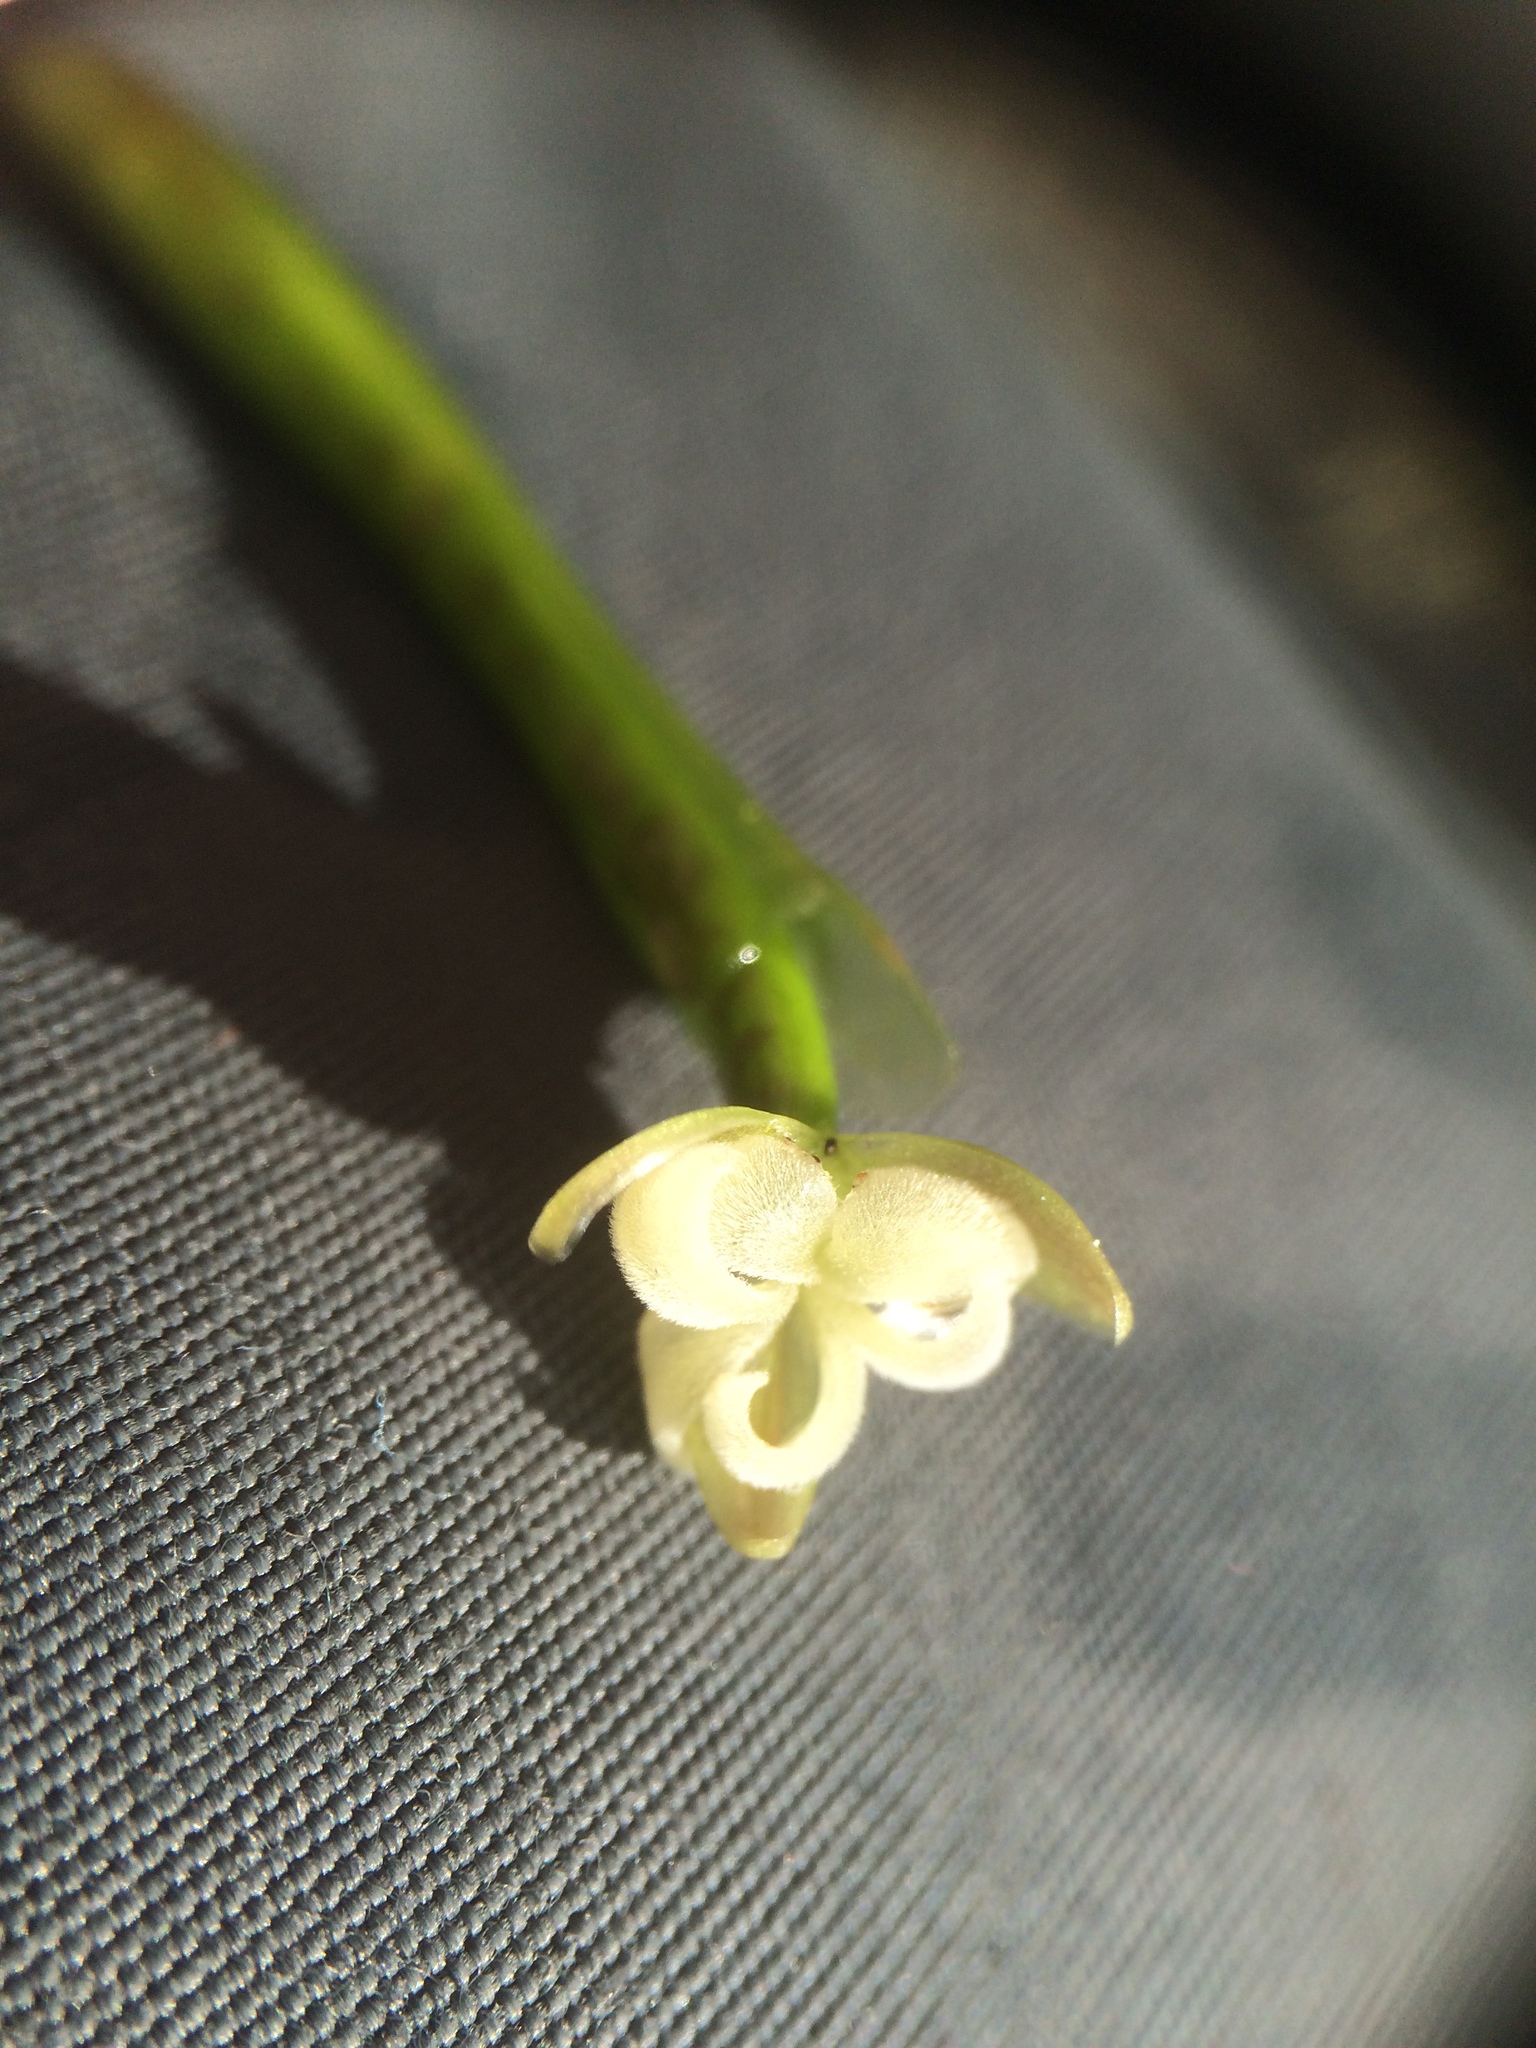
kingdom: Plantae
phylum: Tracheophyta
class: Liliopsida
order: Alismatales
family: Hydrocharitaceae
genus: Vallisneria
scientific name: Vallisneria americana
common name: American eelgrass
